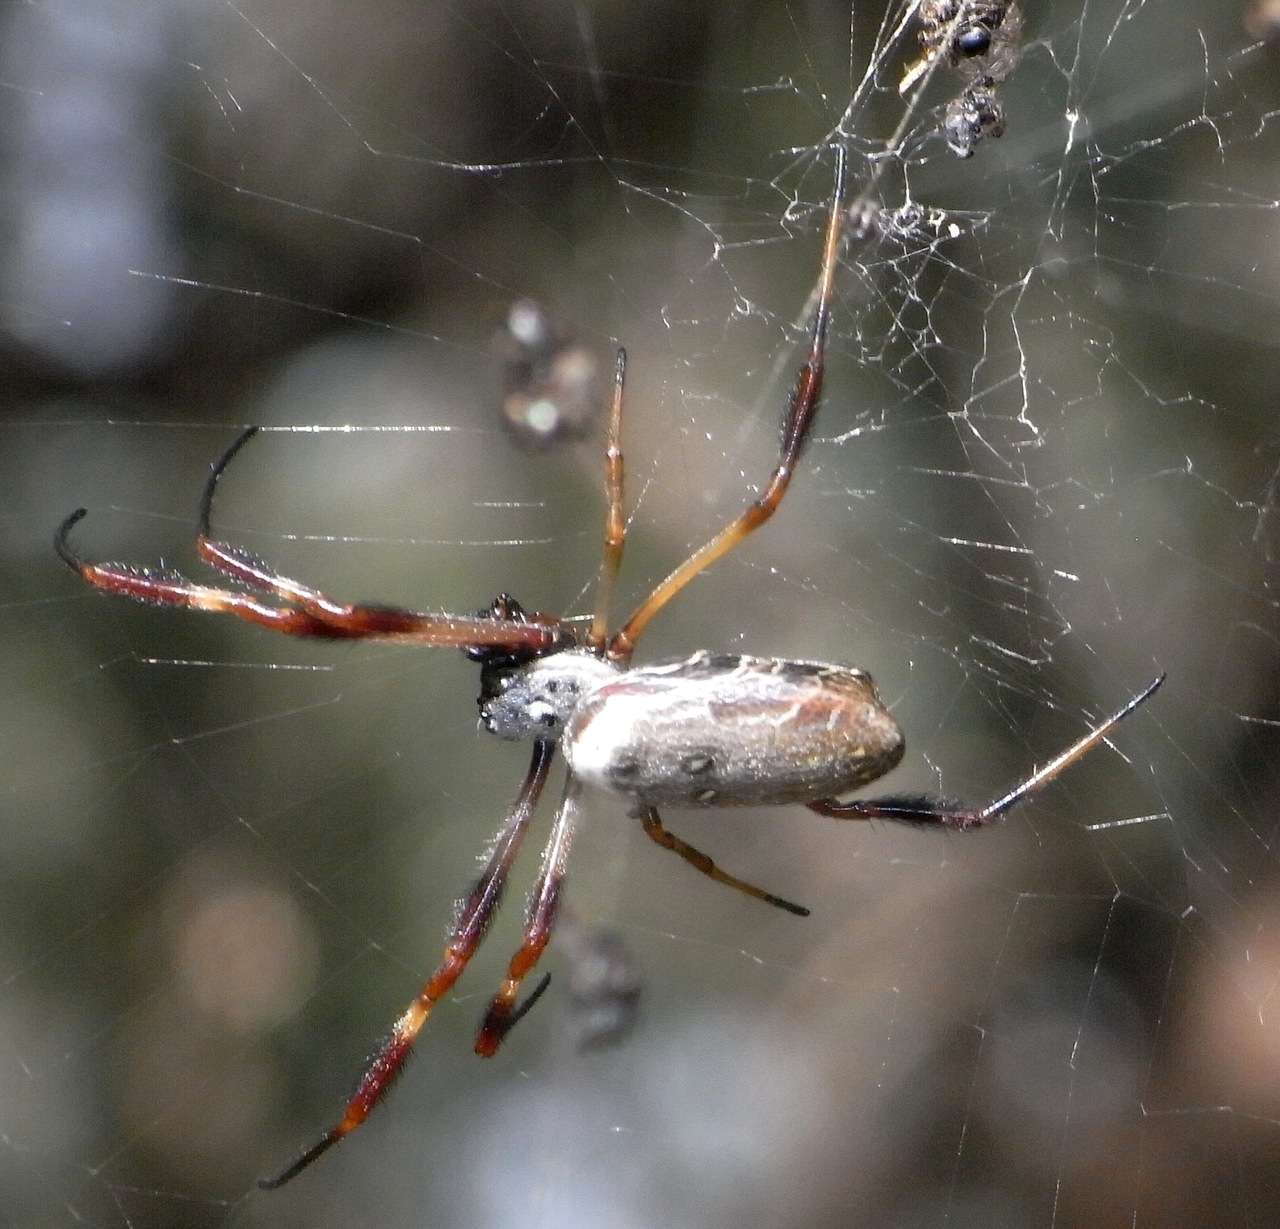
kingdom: Animalia
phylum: Arthropoda
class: Arachnida
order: Araneae
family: Araneidae
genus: Trichonephila
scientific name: Trichonephila edulis
